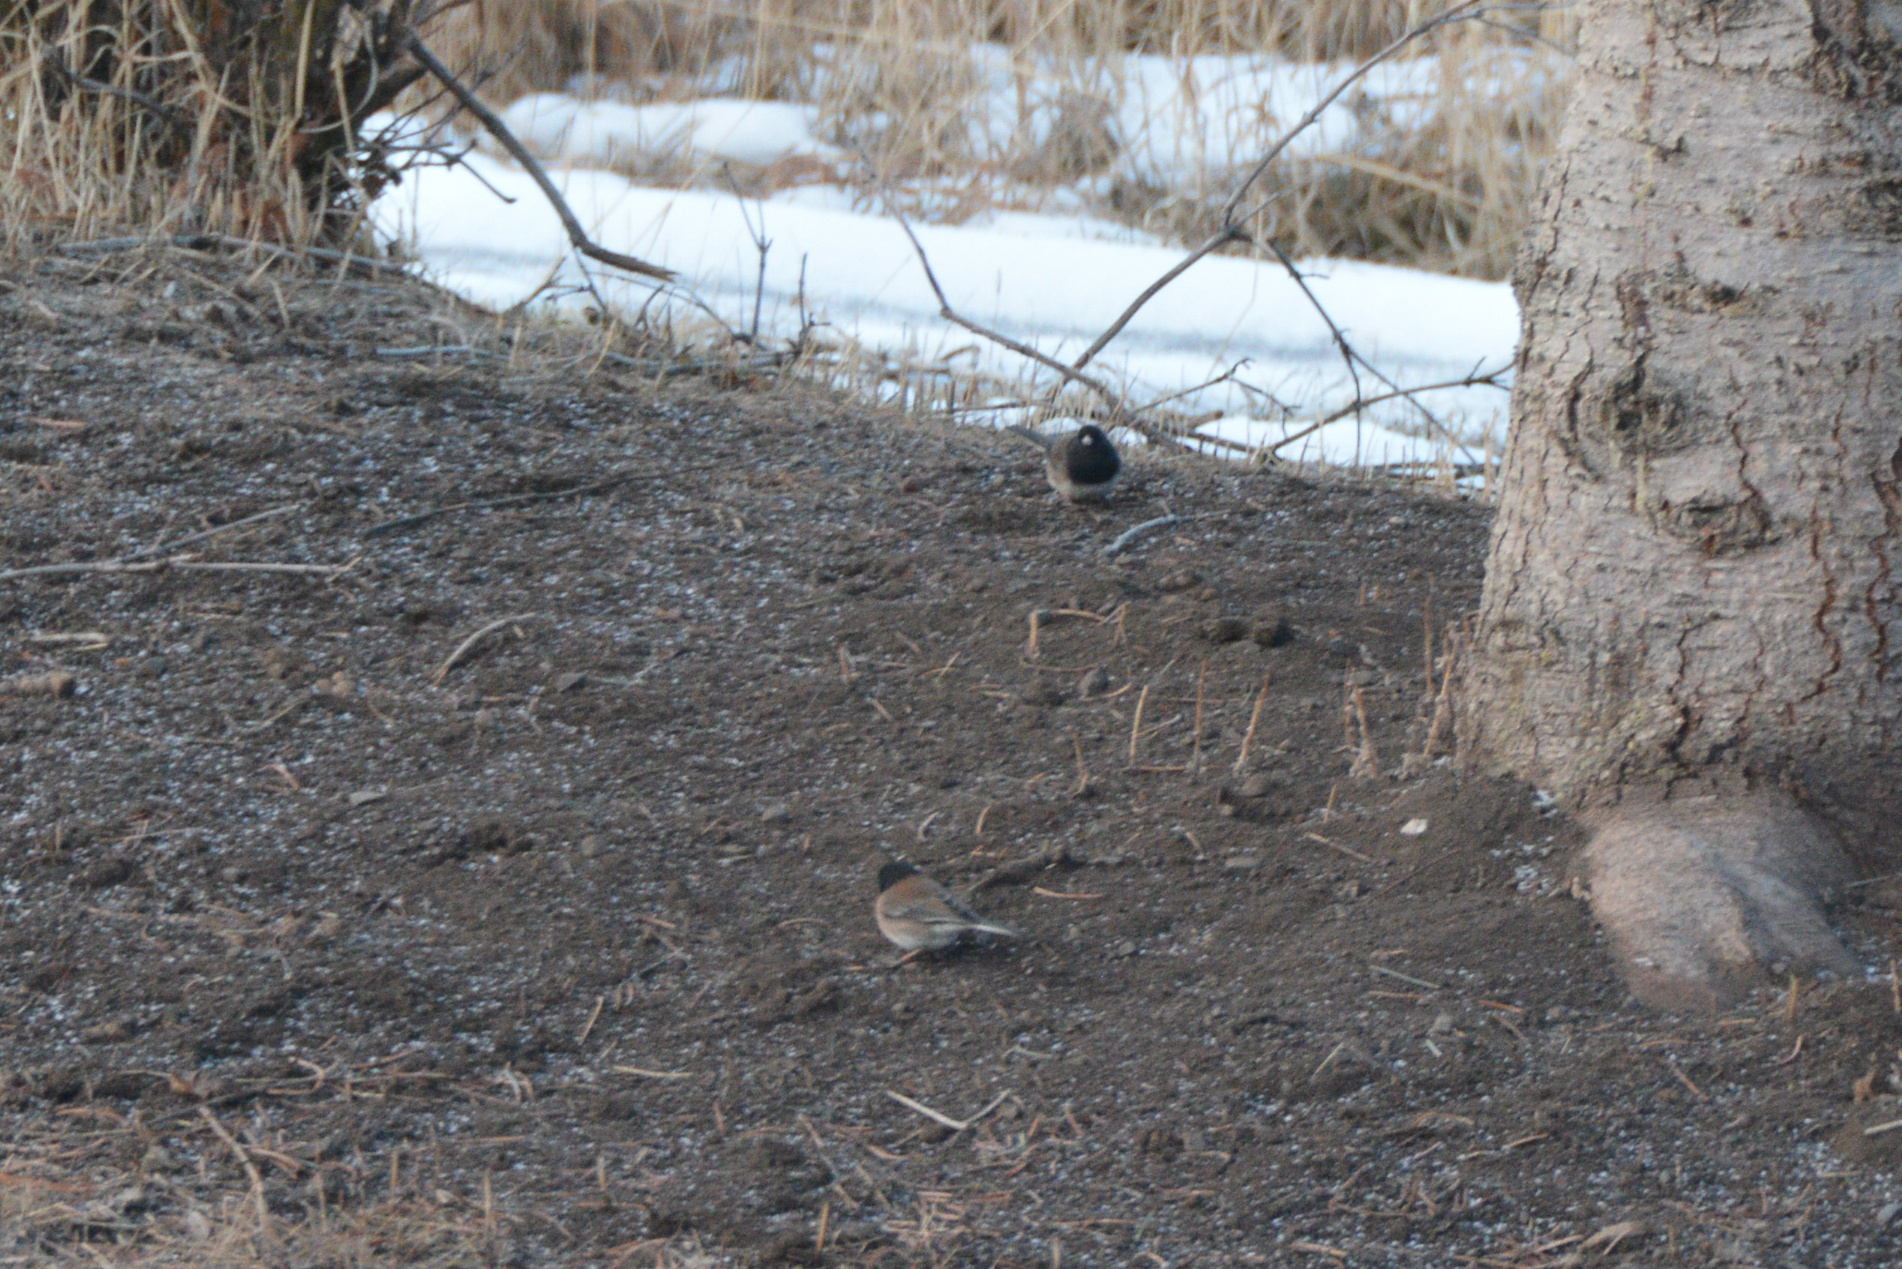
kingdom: Animalia
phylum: Chordata
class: Aves
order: Passeriformes
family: Passerellidae
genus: Junco
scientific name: Junco hyemalis
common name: Dark-eyed junco
